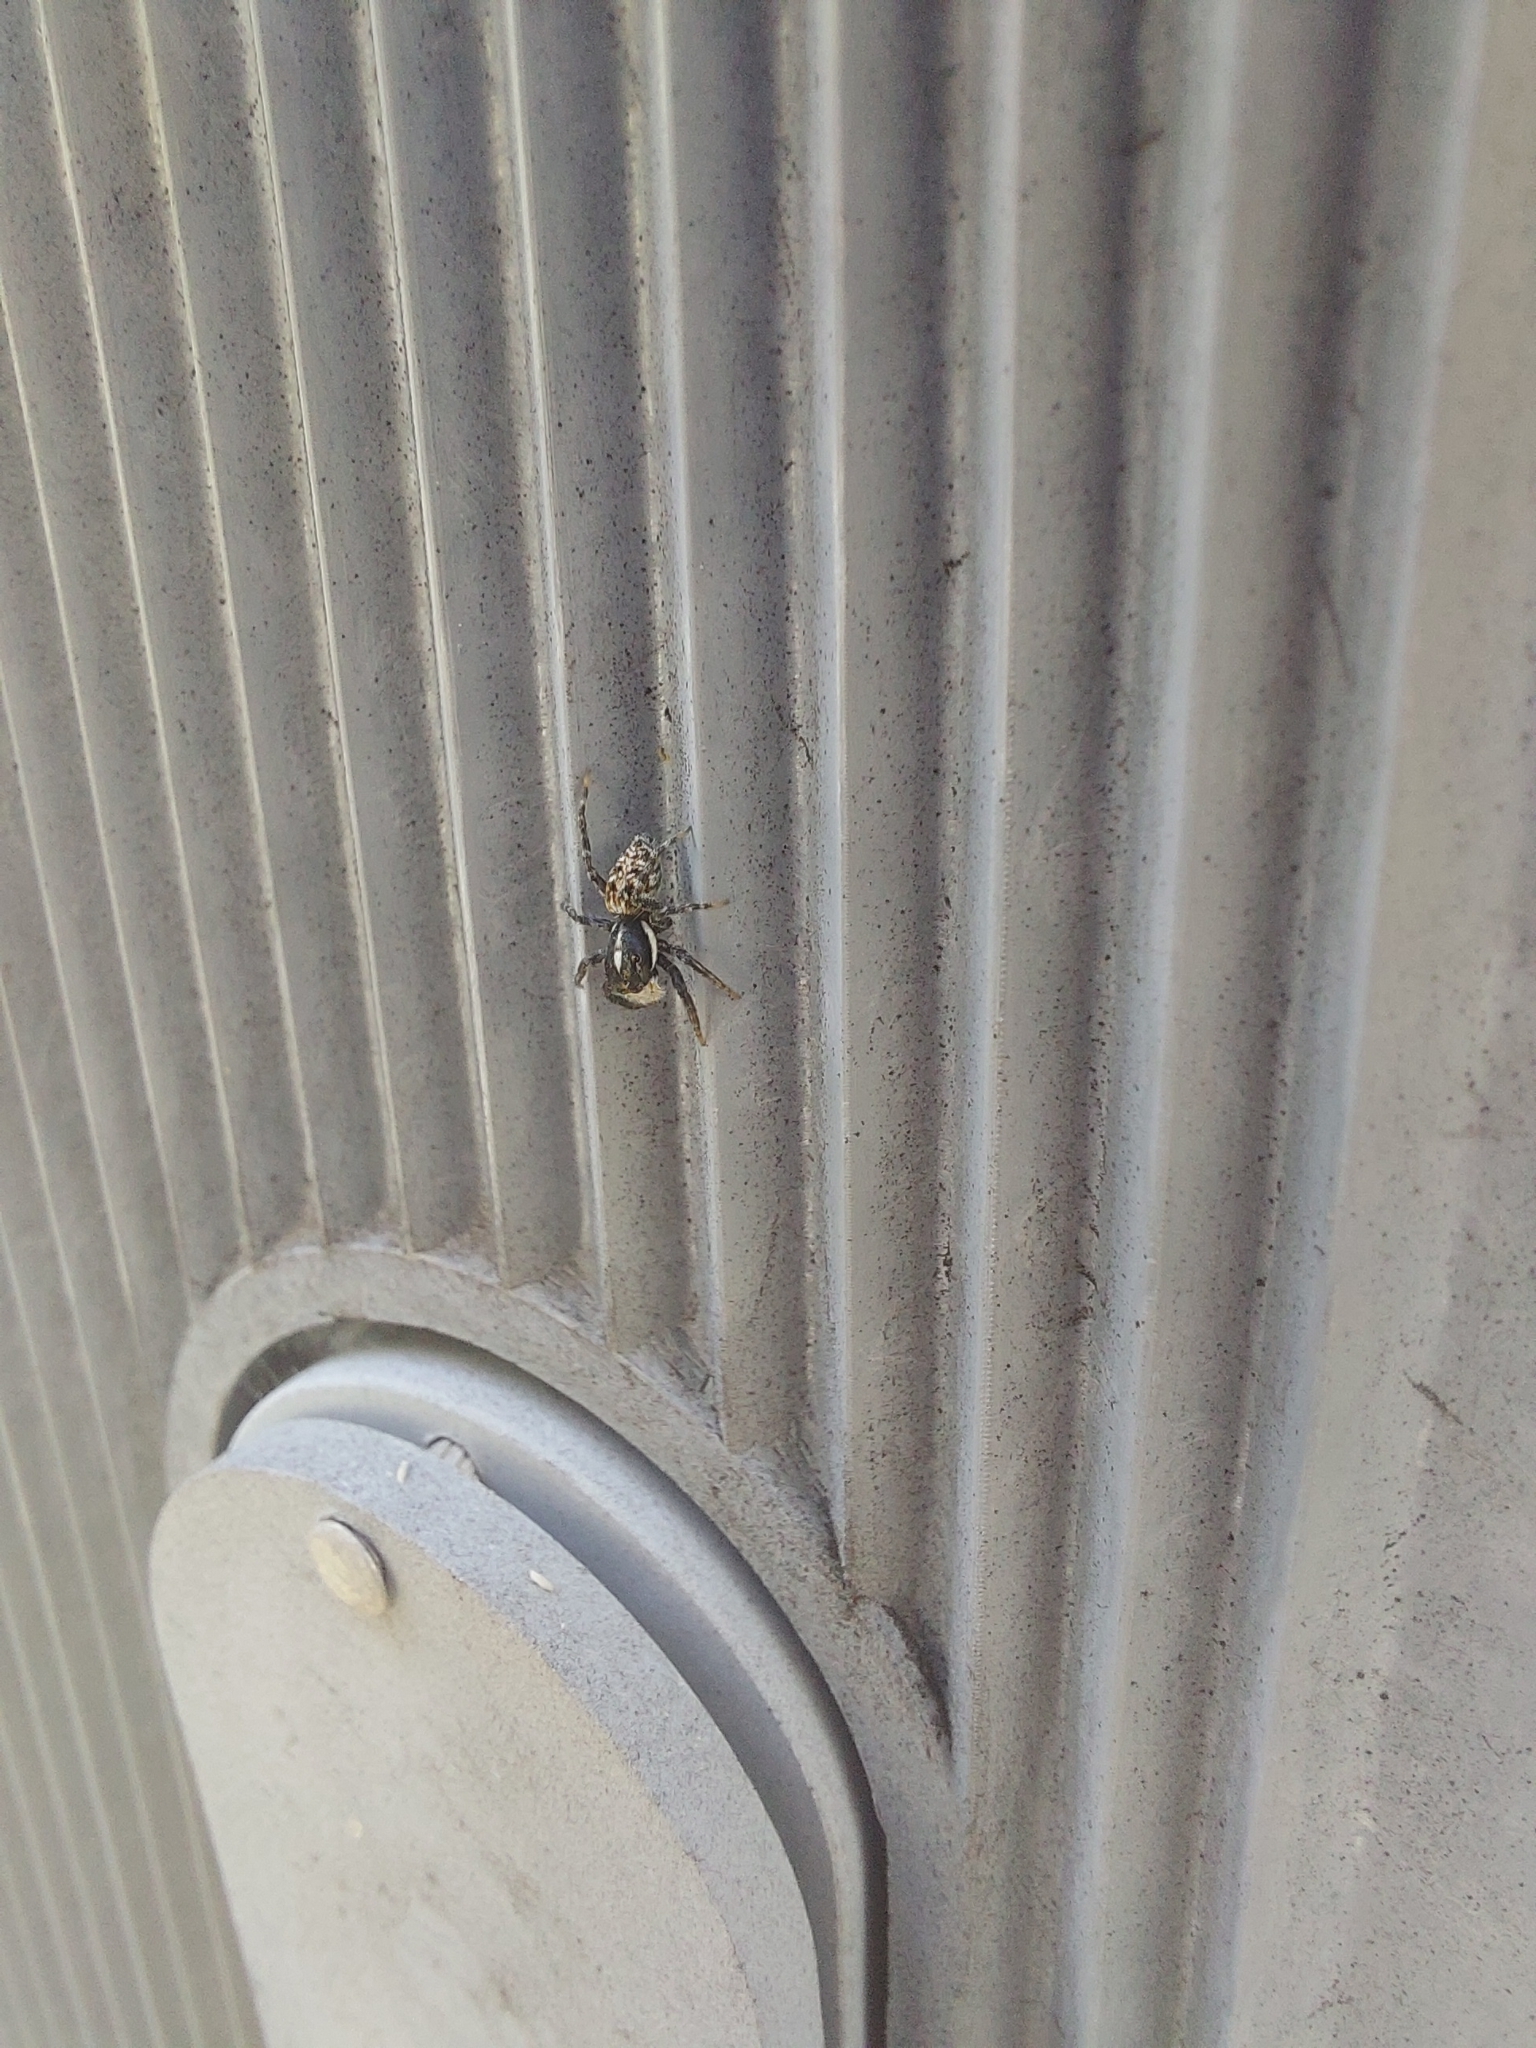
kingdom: Animalia
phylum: Arthropoda
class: Arachnida
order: Araneae
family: Salticidae
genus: Menemerus
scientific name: Menemerus semilimbatus
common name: Jumping spider
